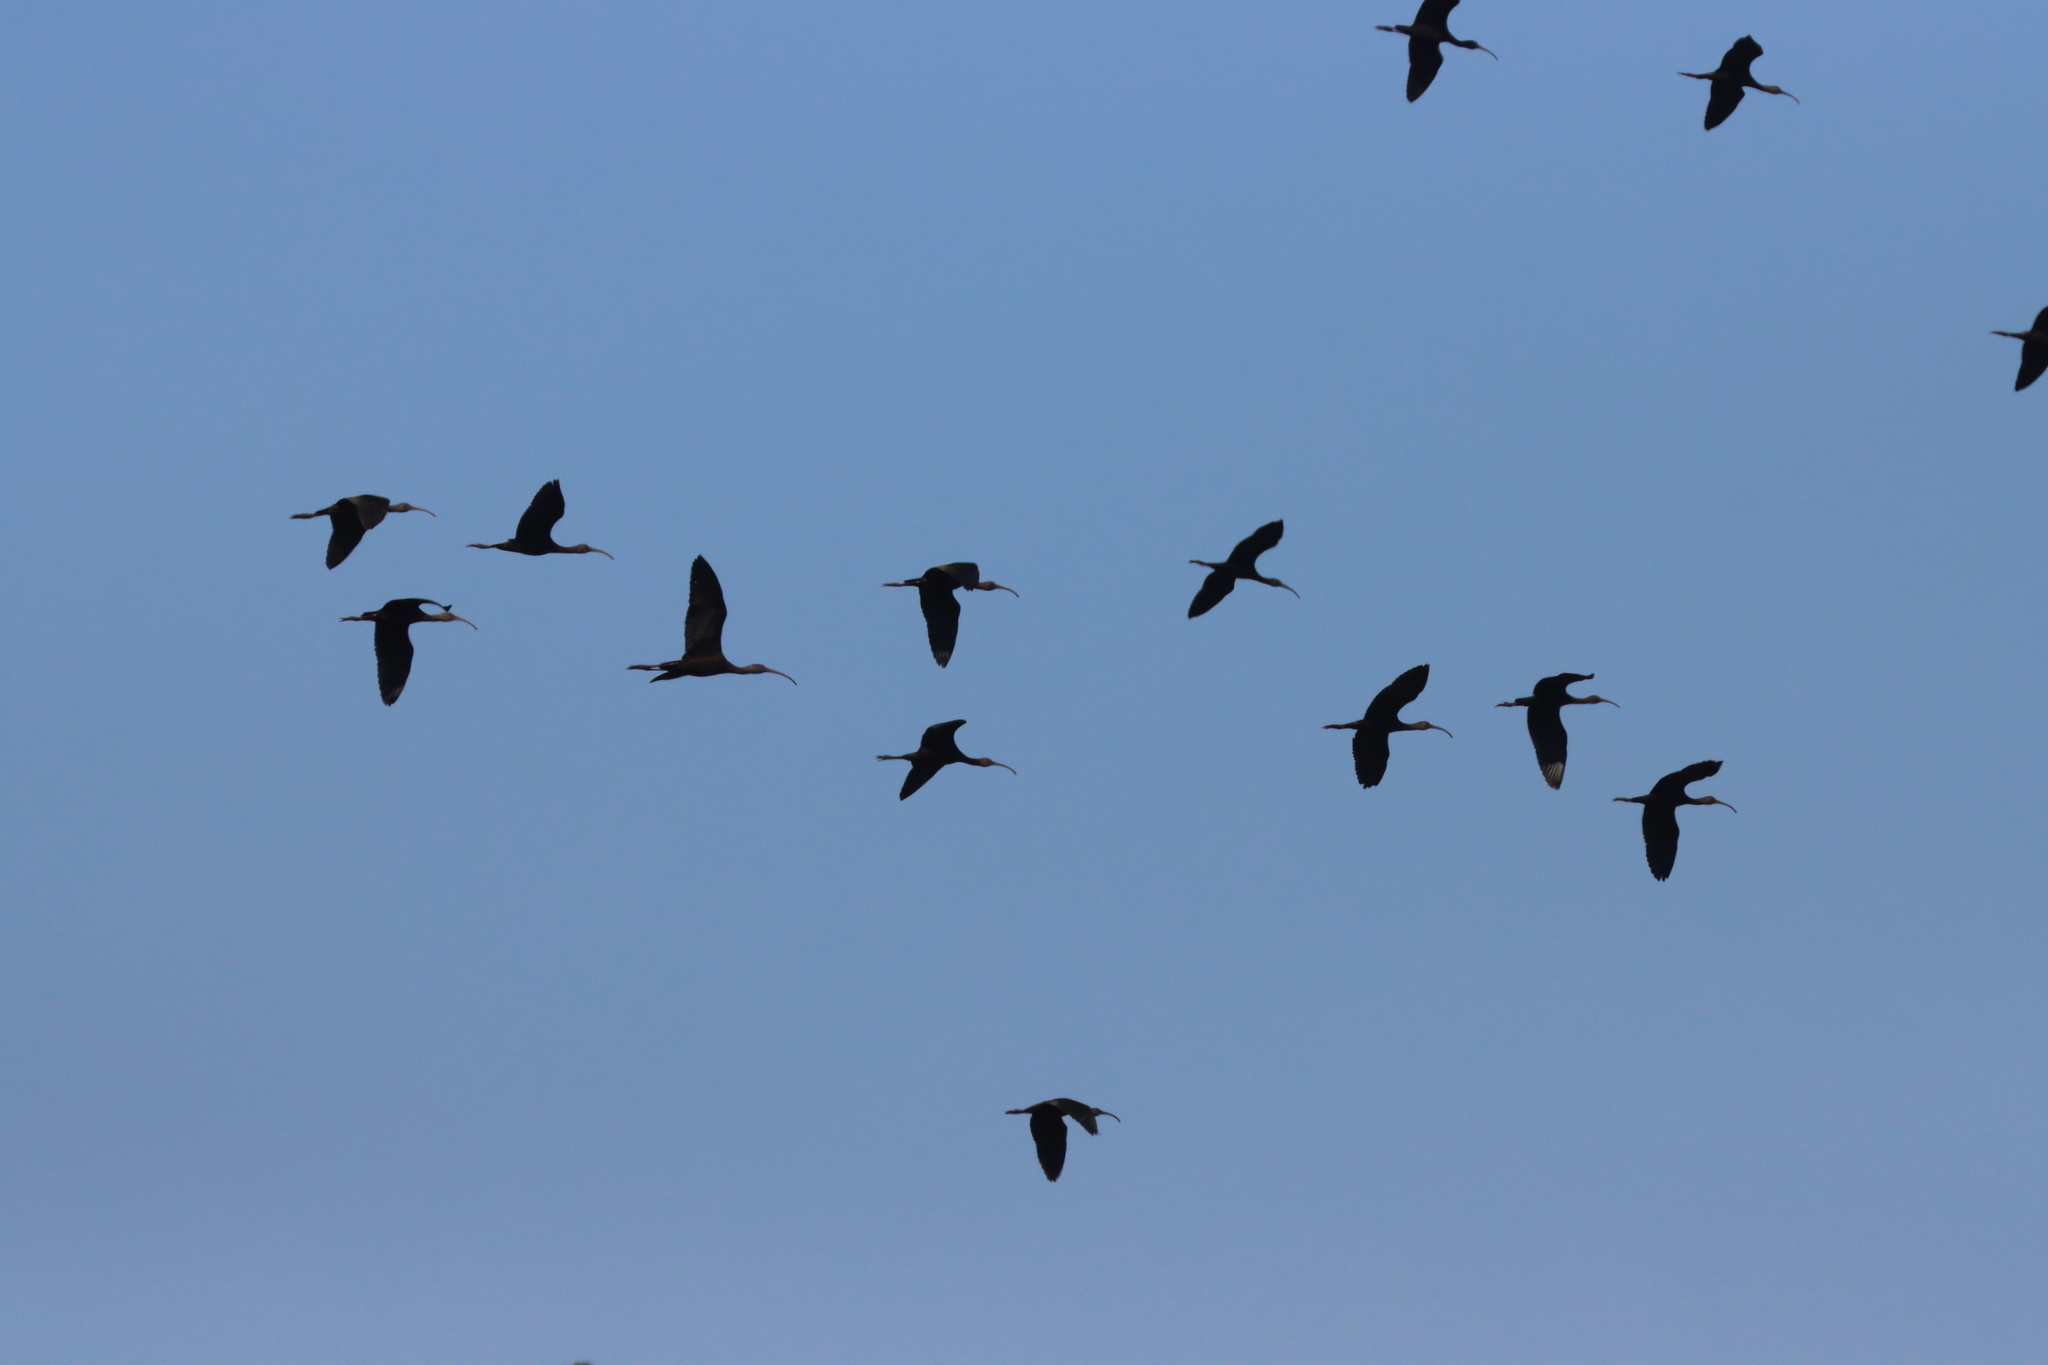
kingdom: Animalia
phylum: Chordata
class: Aves
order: Pelecaniformes
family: Threskiornithidae
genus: Plegadis
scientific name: Plegadis
